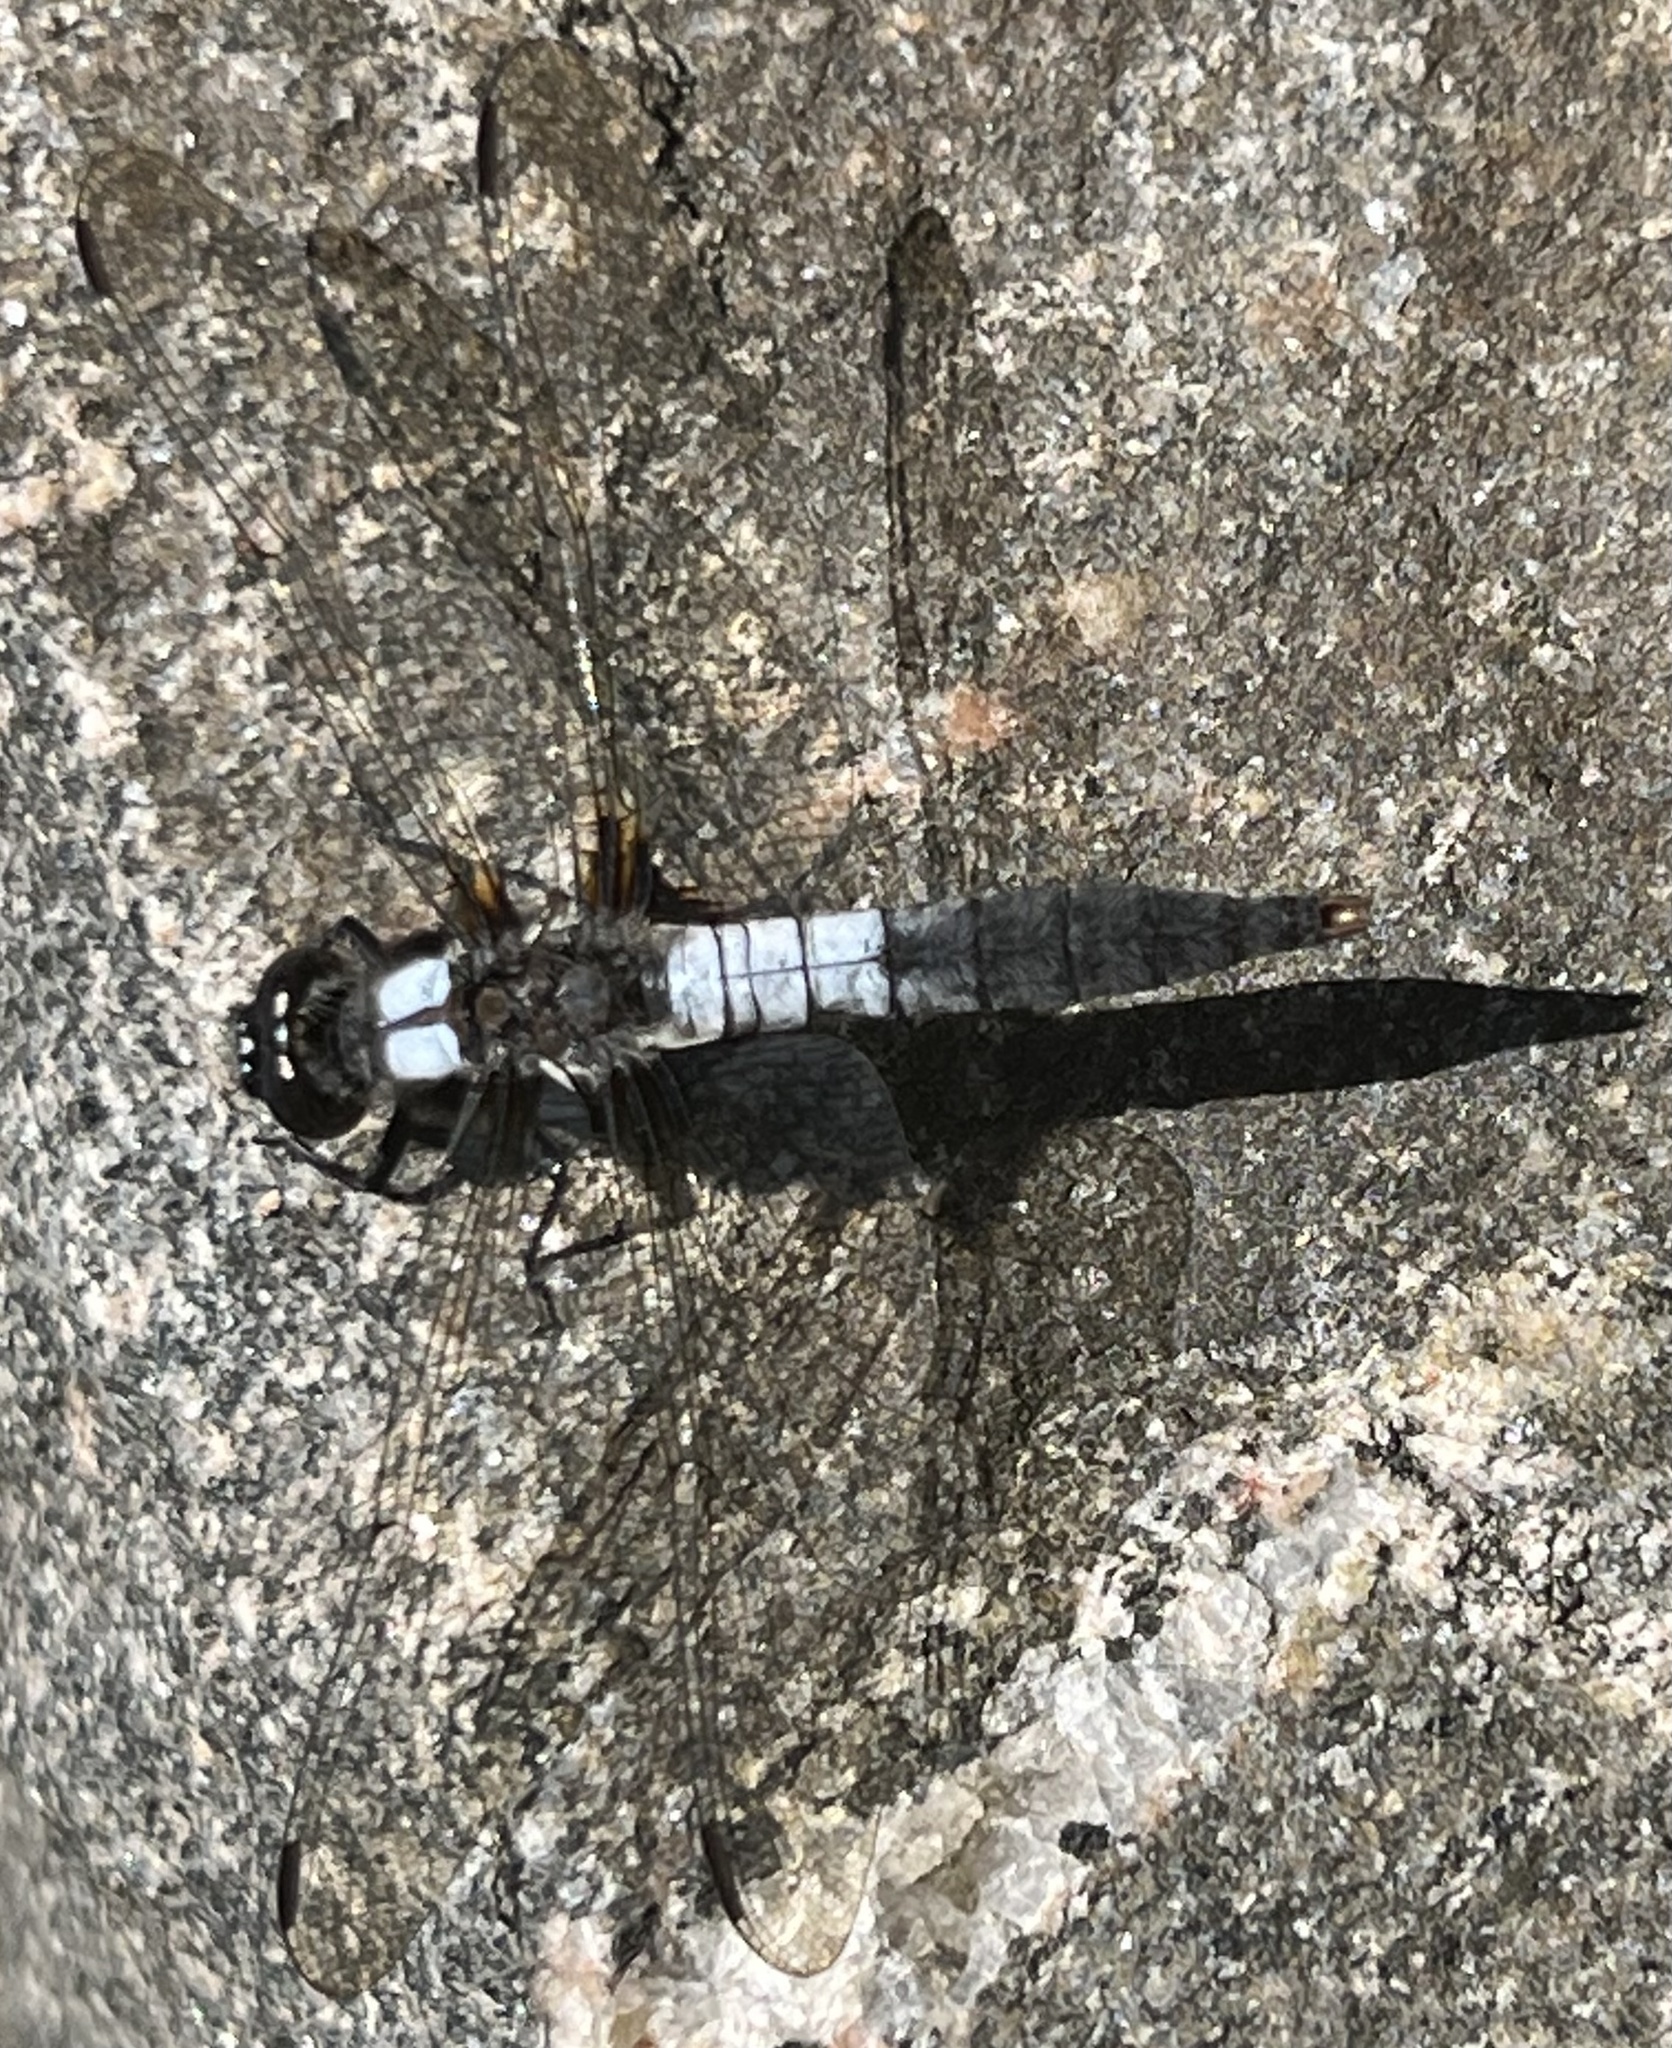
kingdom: Animalia
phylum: Arthropoda
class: Insecta
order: Odonata
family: Libellulidae
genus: Ladona
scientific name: Ladona julia
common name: Chalk-fronted corporal
